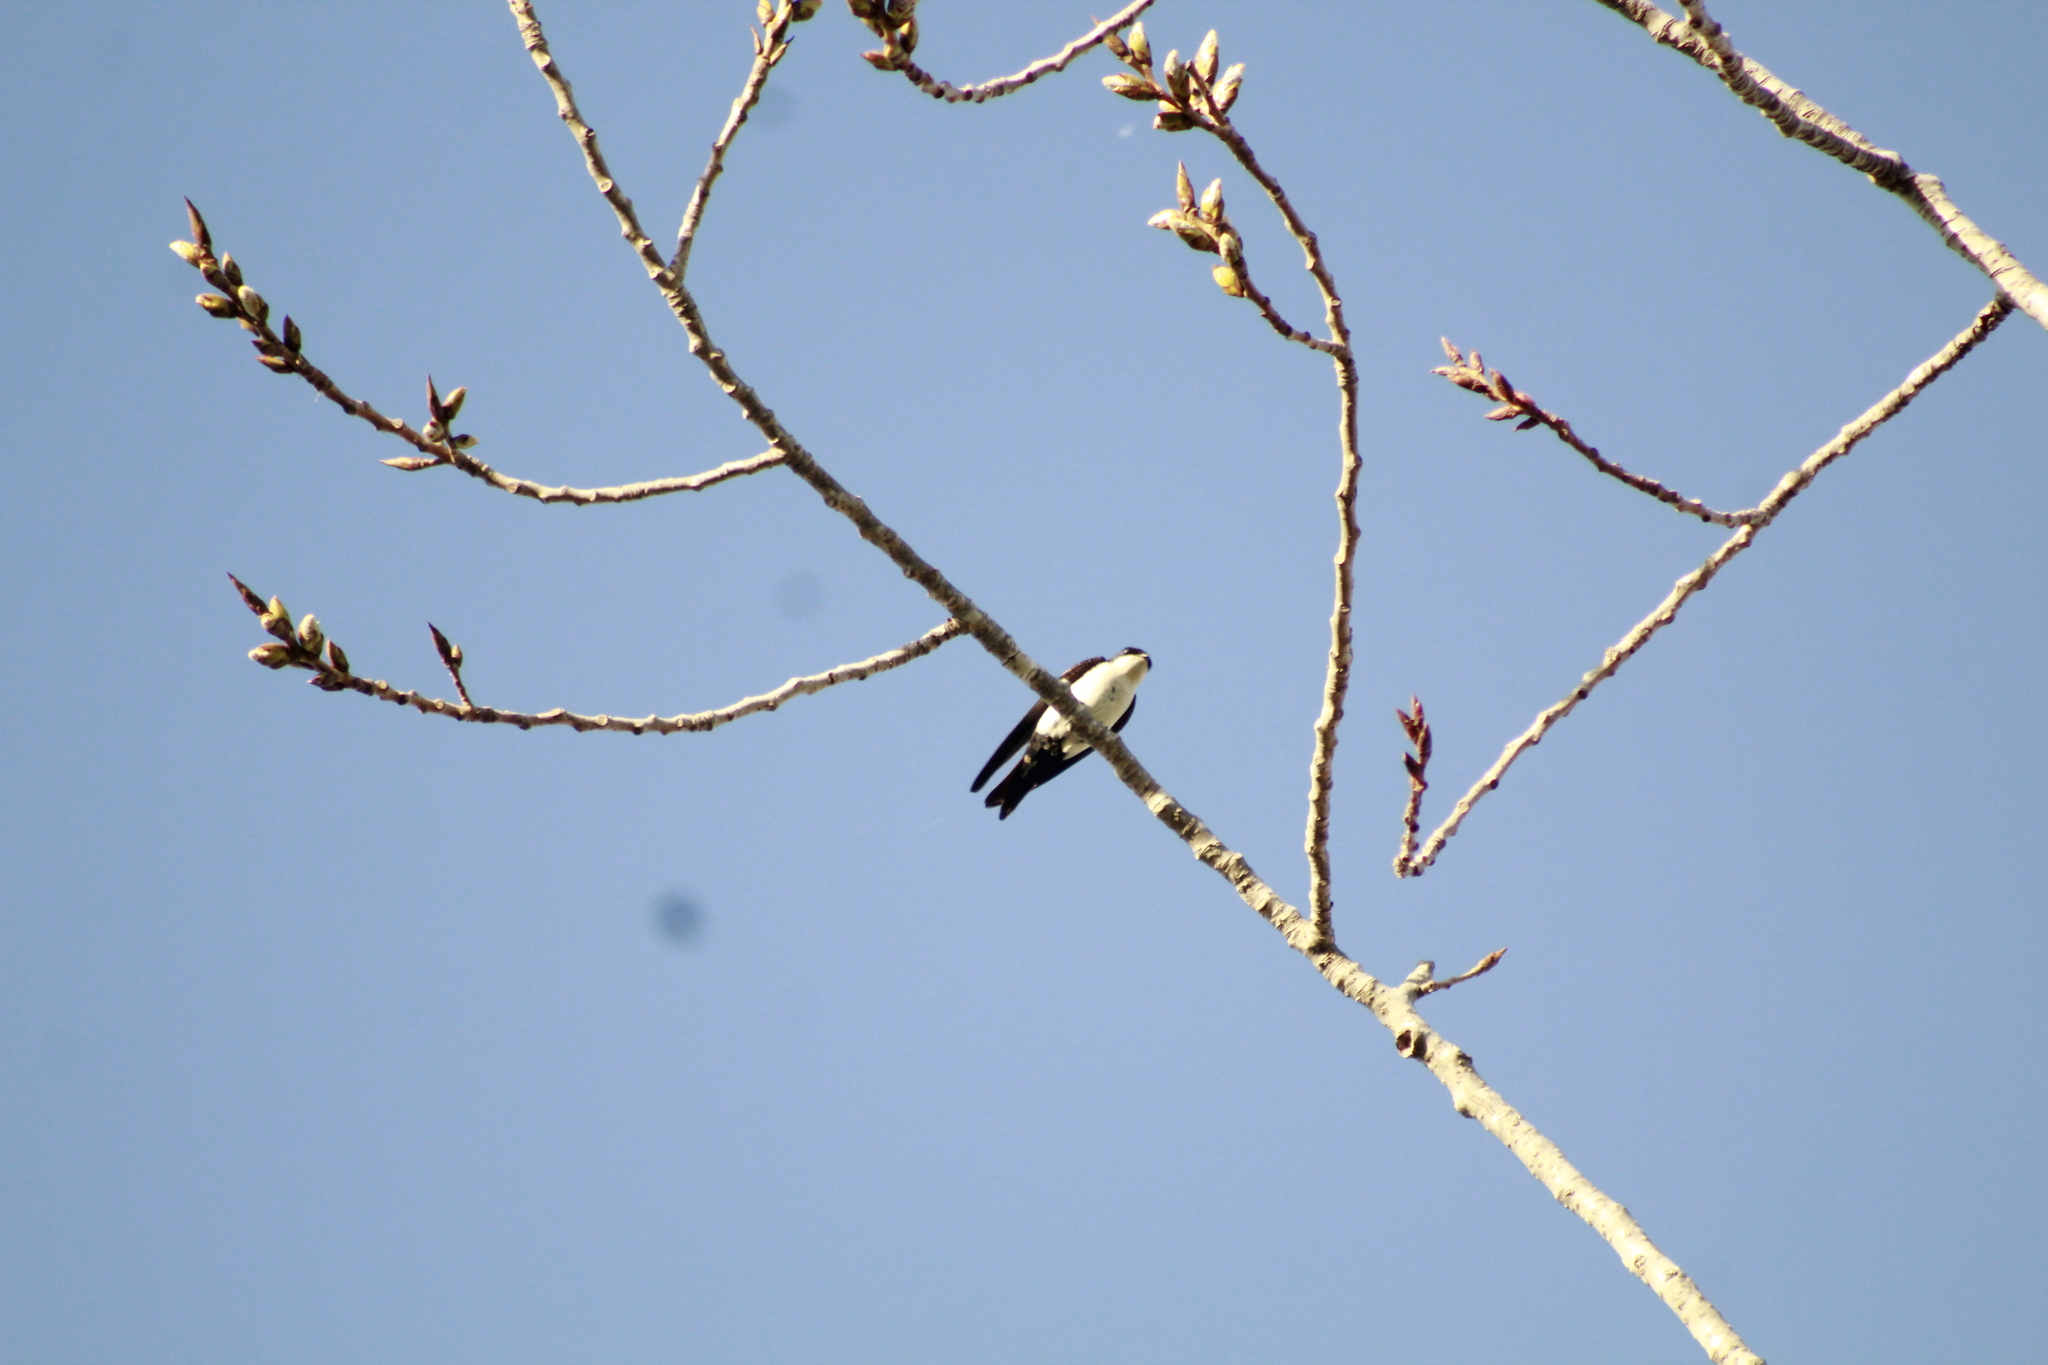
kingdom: Animalia
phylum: Chordata
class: Aves
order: Passeriformes
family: Hirundinidae
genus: Notiochelidon
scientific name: Notiochelidon cyanoleuca
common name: Blue-and-white swallow
